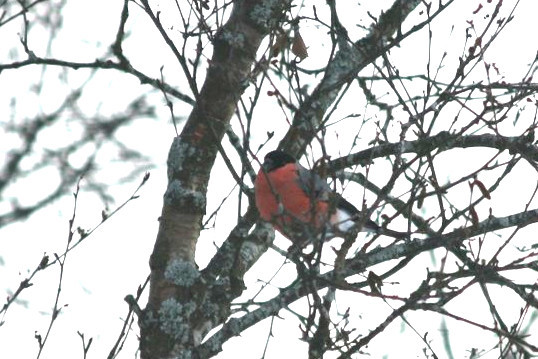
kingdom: Animalia
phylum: Chordata
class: Aves
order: Passeriformes
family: Fringillidae
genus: Pyrrhula
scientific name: Pyrrhula pyrrhula
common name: Eurasian bullfinch
